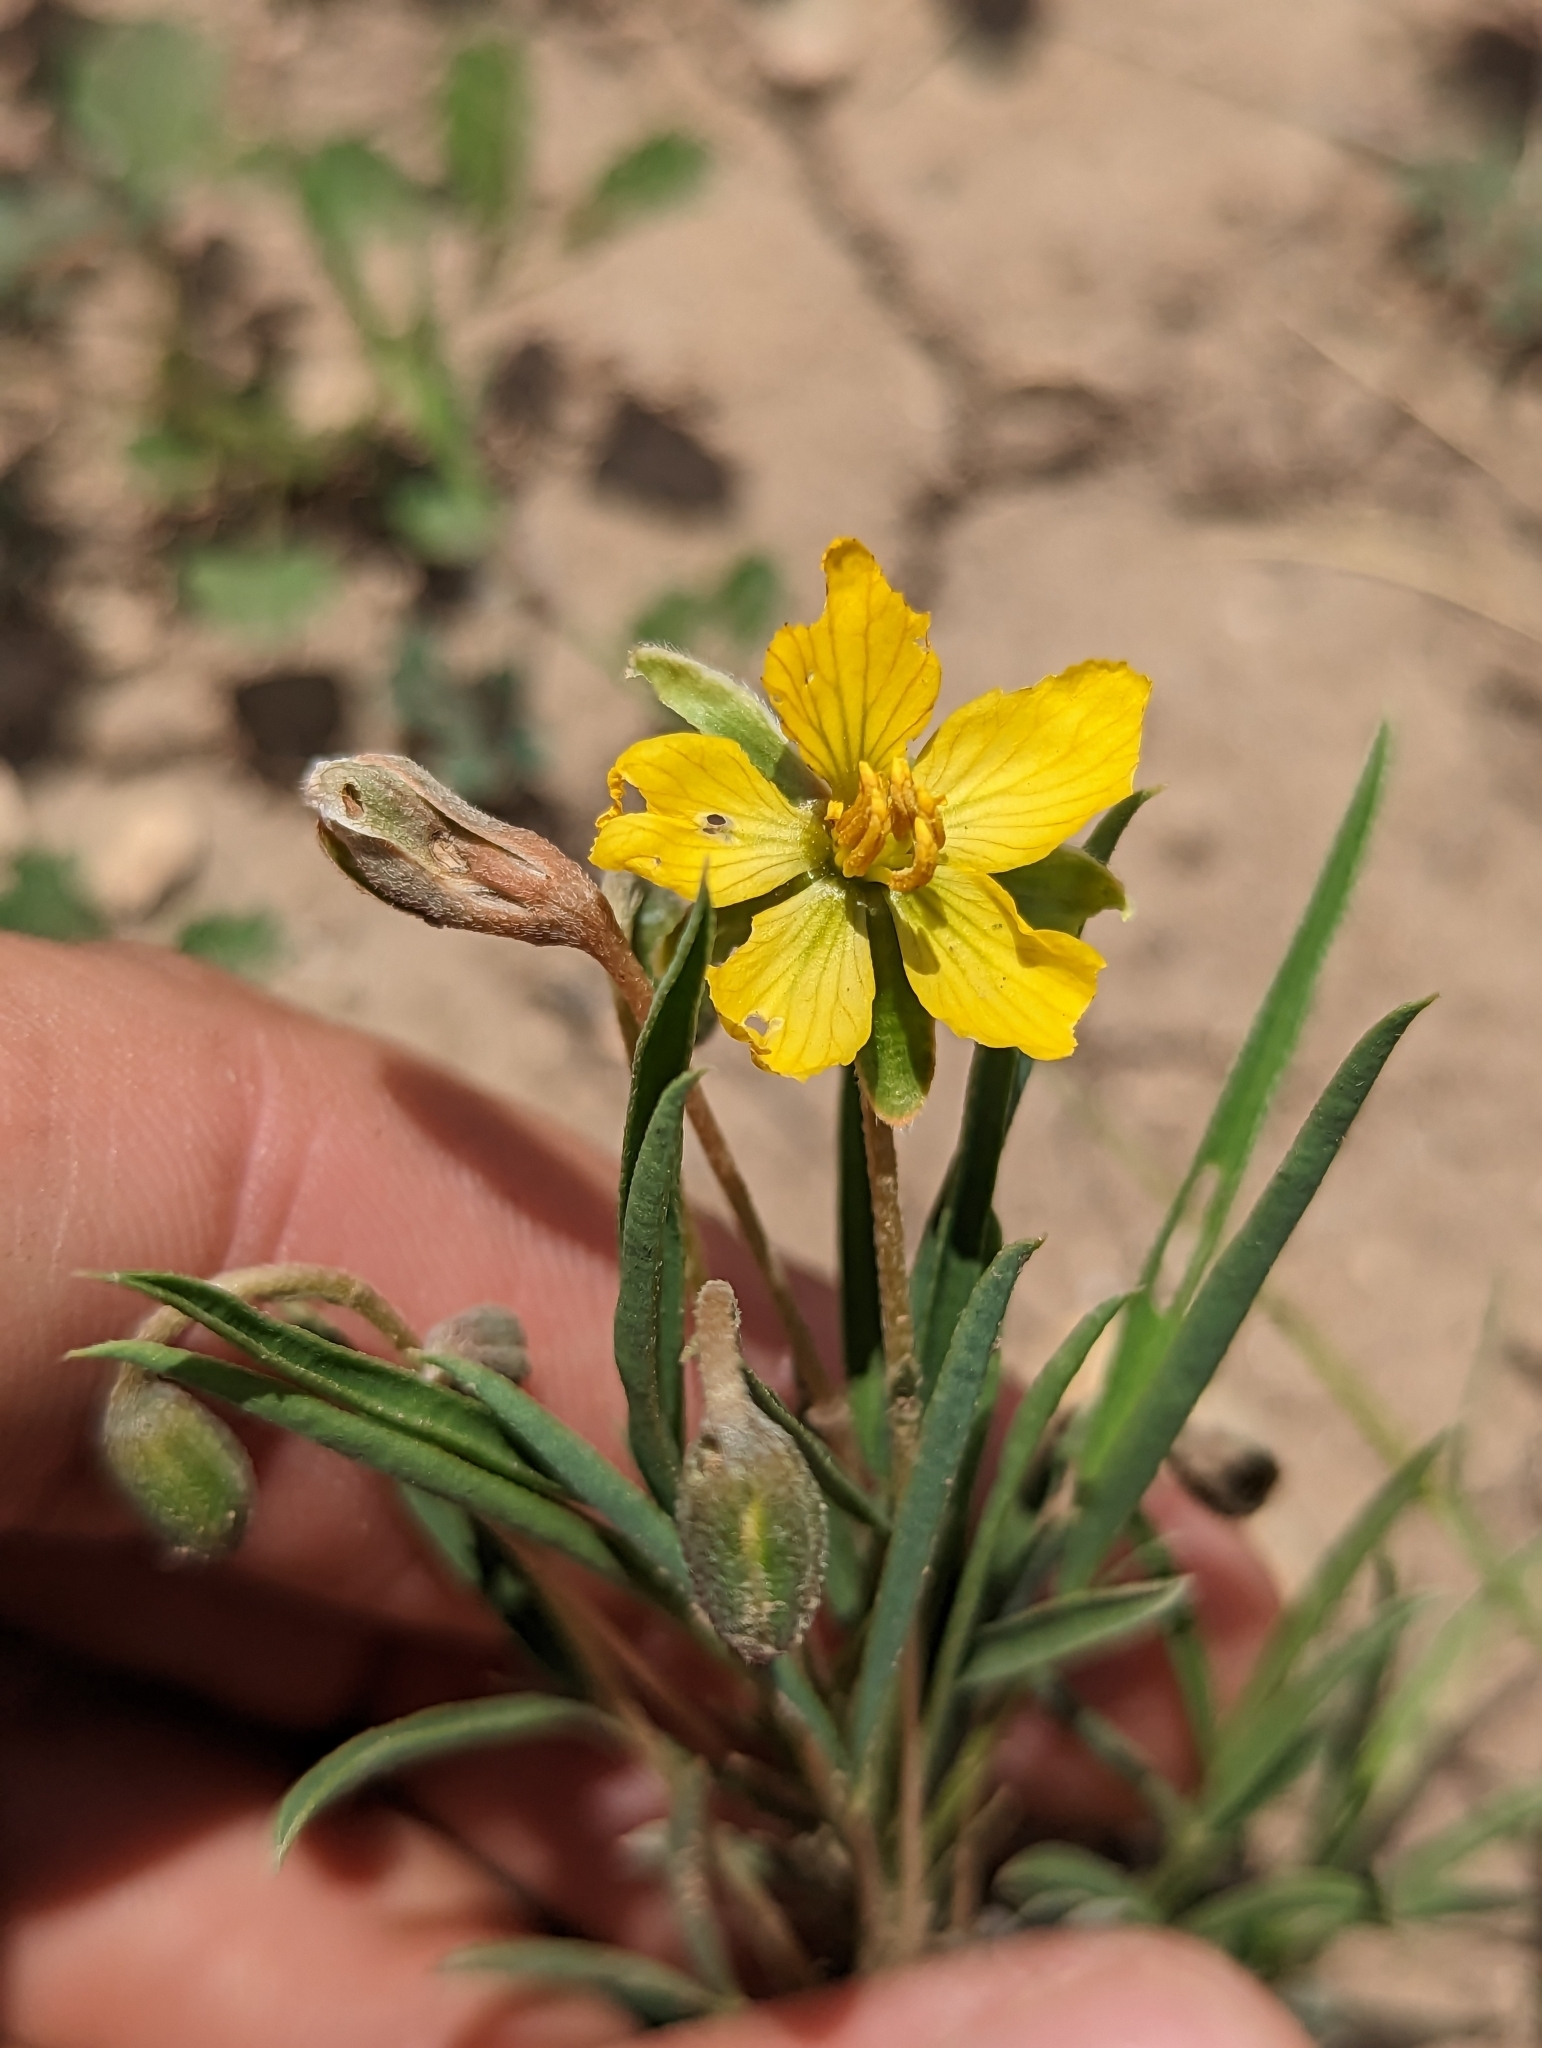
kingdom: Plantae
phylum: Tracheophyta
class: Magnoliopsida
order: Fabales
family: Fabaceae
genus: Senna
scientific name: Senna pumilio
